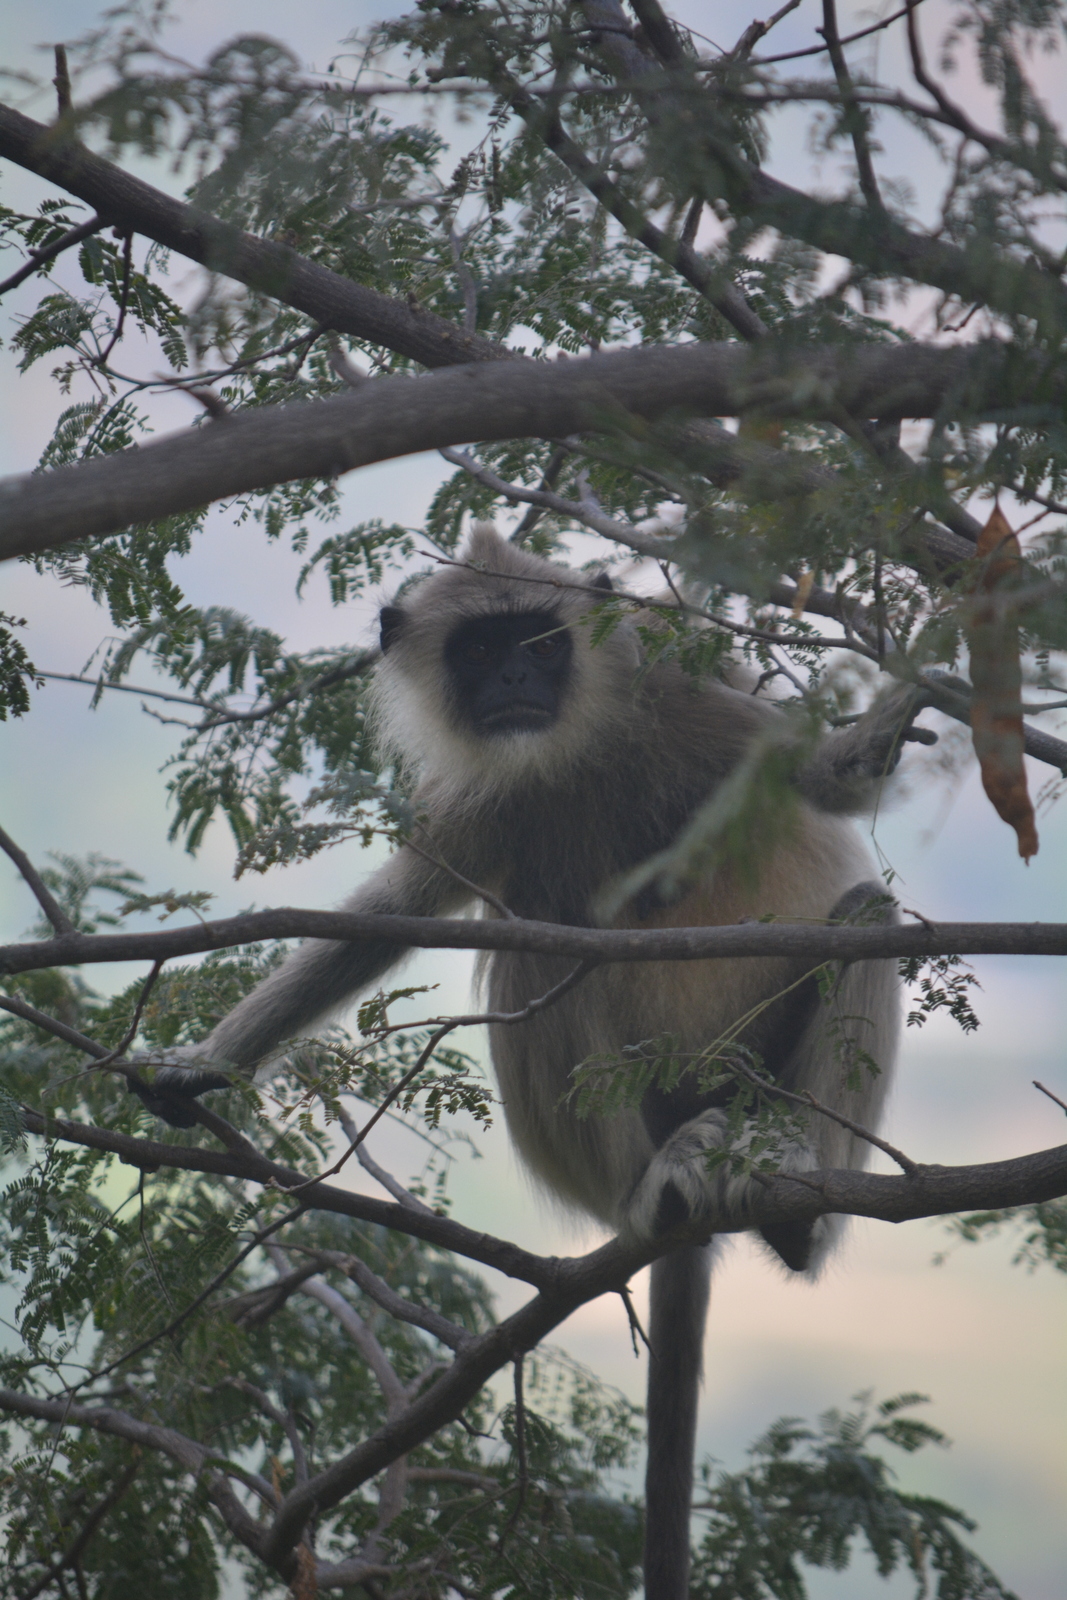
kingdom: Animalia
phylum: Chordata
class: Mammalia
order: Primates
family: Cercopithecidae
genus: Semnopithecus
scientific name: Semnopithecus priam
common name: Tufted gray langur
